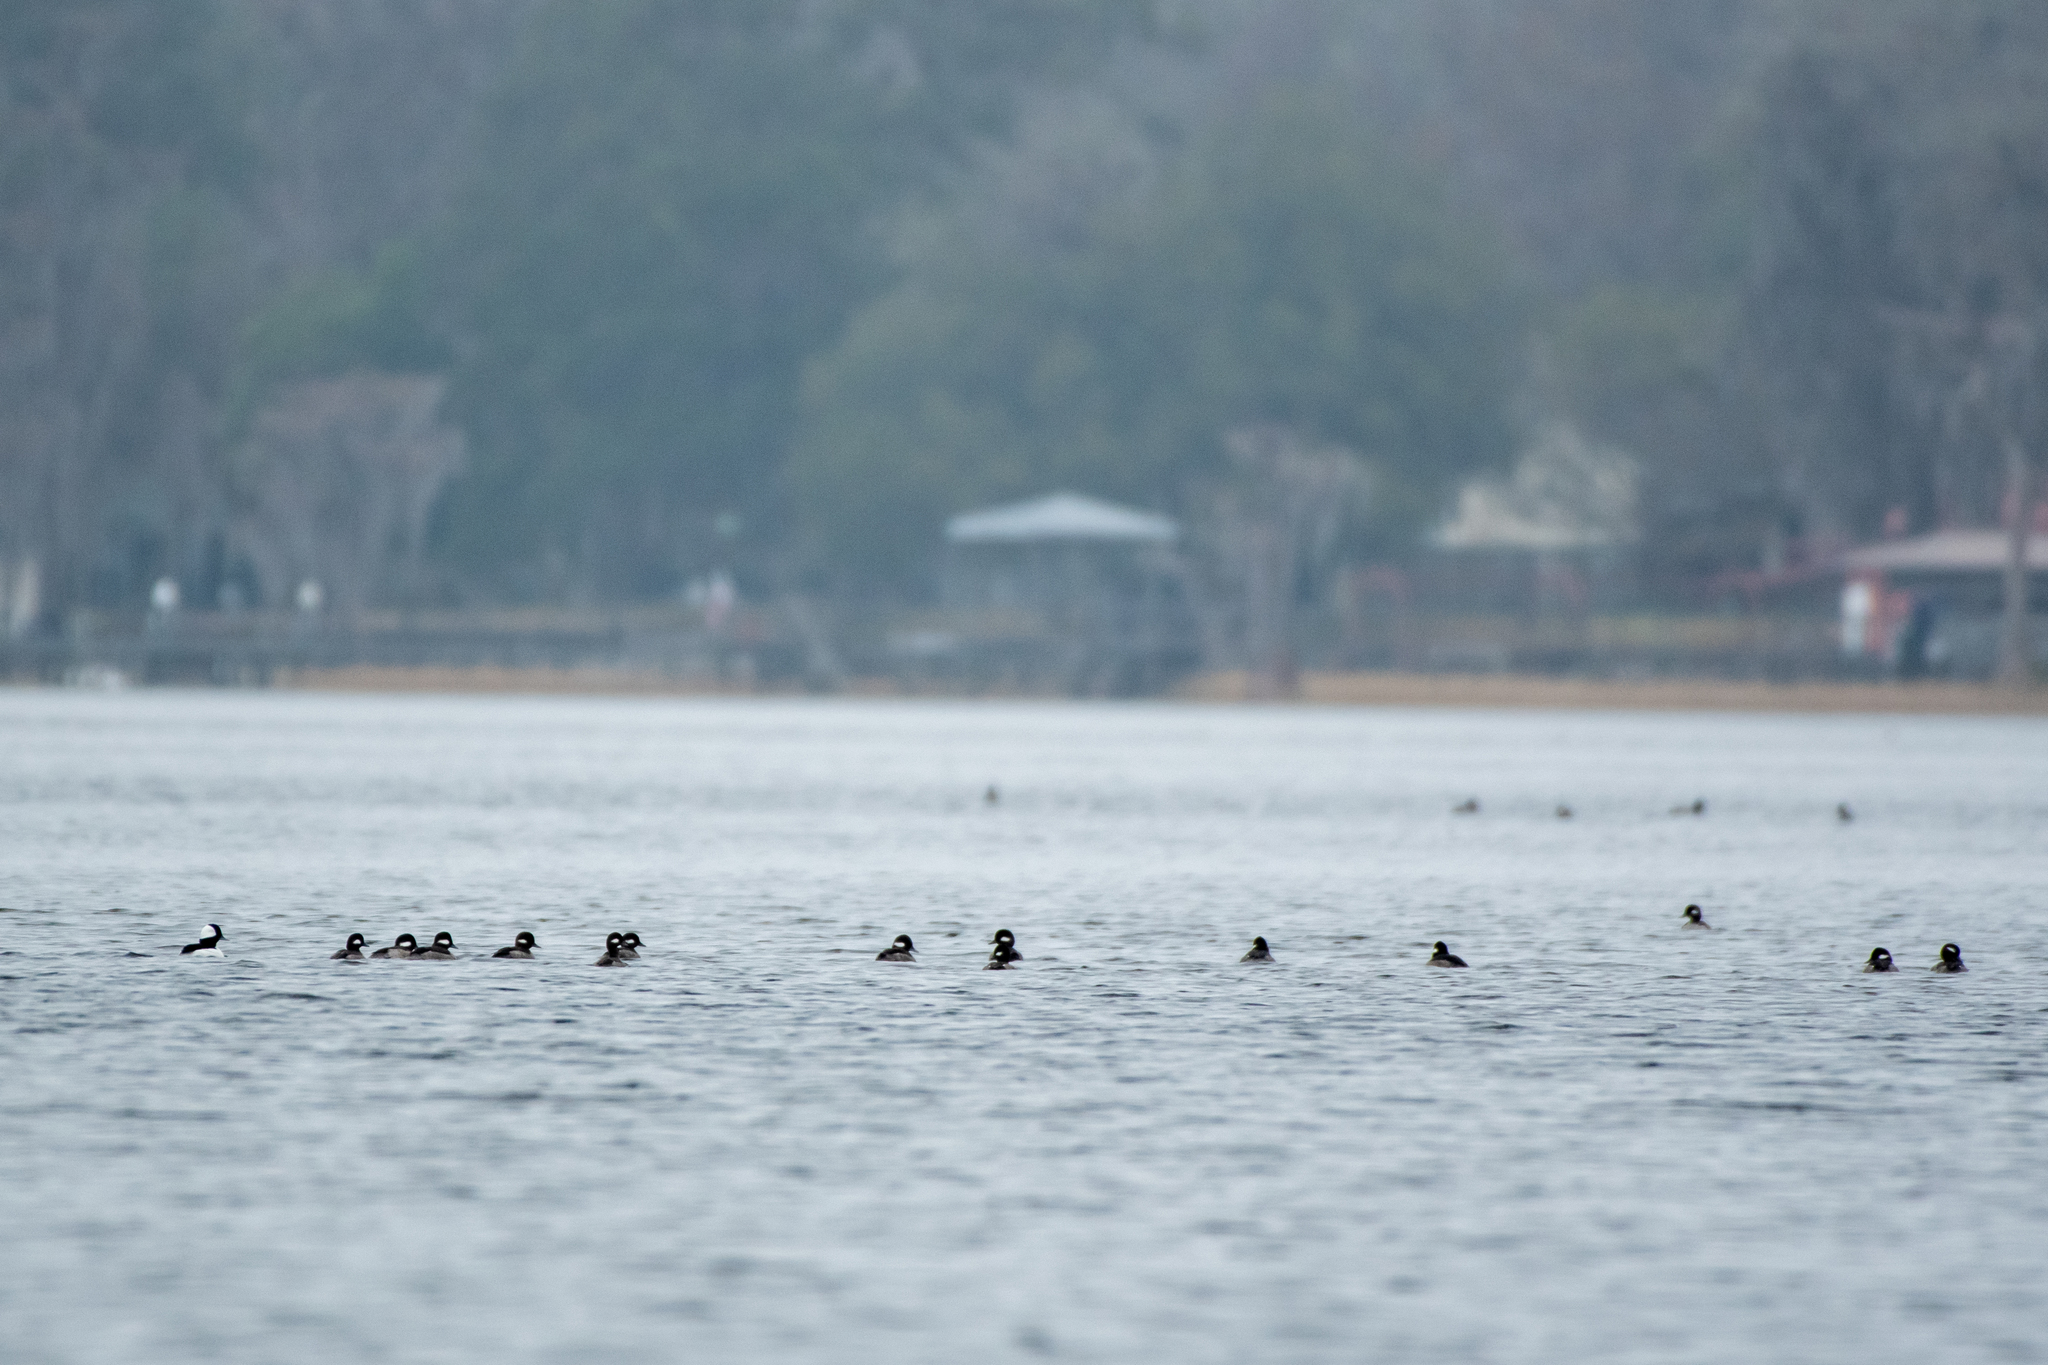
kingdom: Animalia
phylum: Chordata
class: Aves
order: Anseriformes
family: Anatidae
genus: Bucephala
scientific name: Bucephala albeola
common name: Bufflehead
